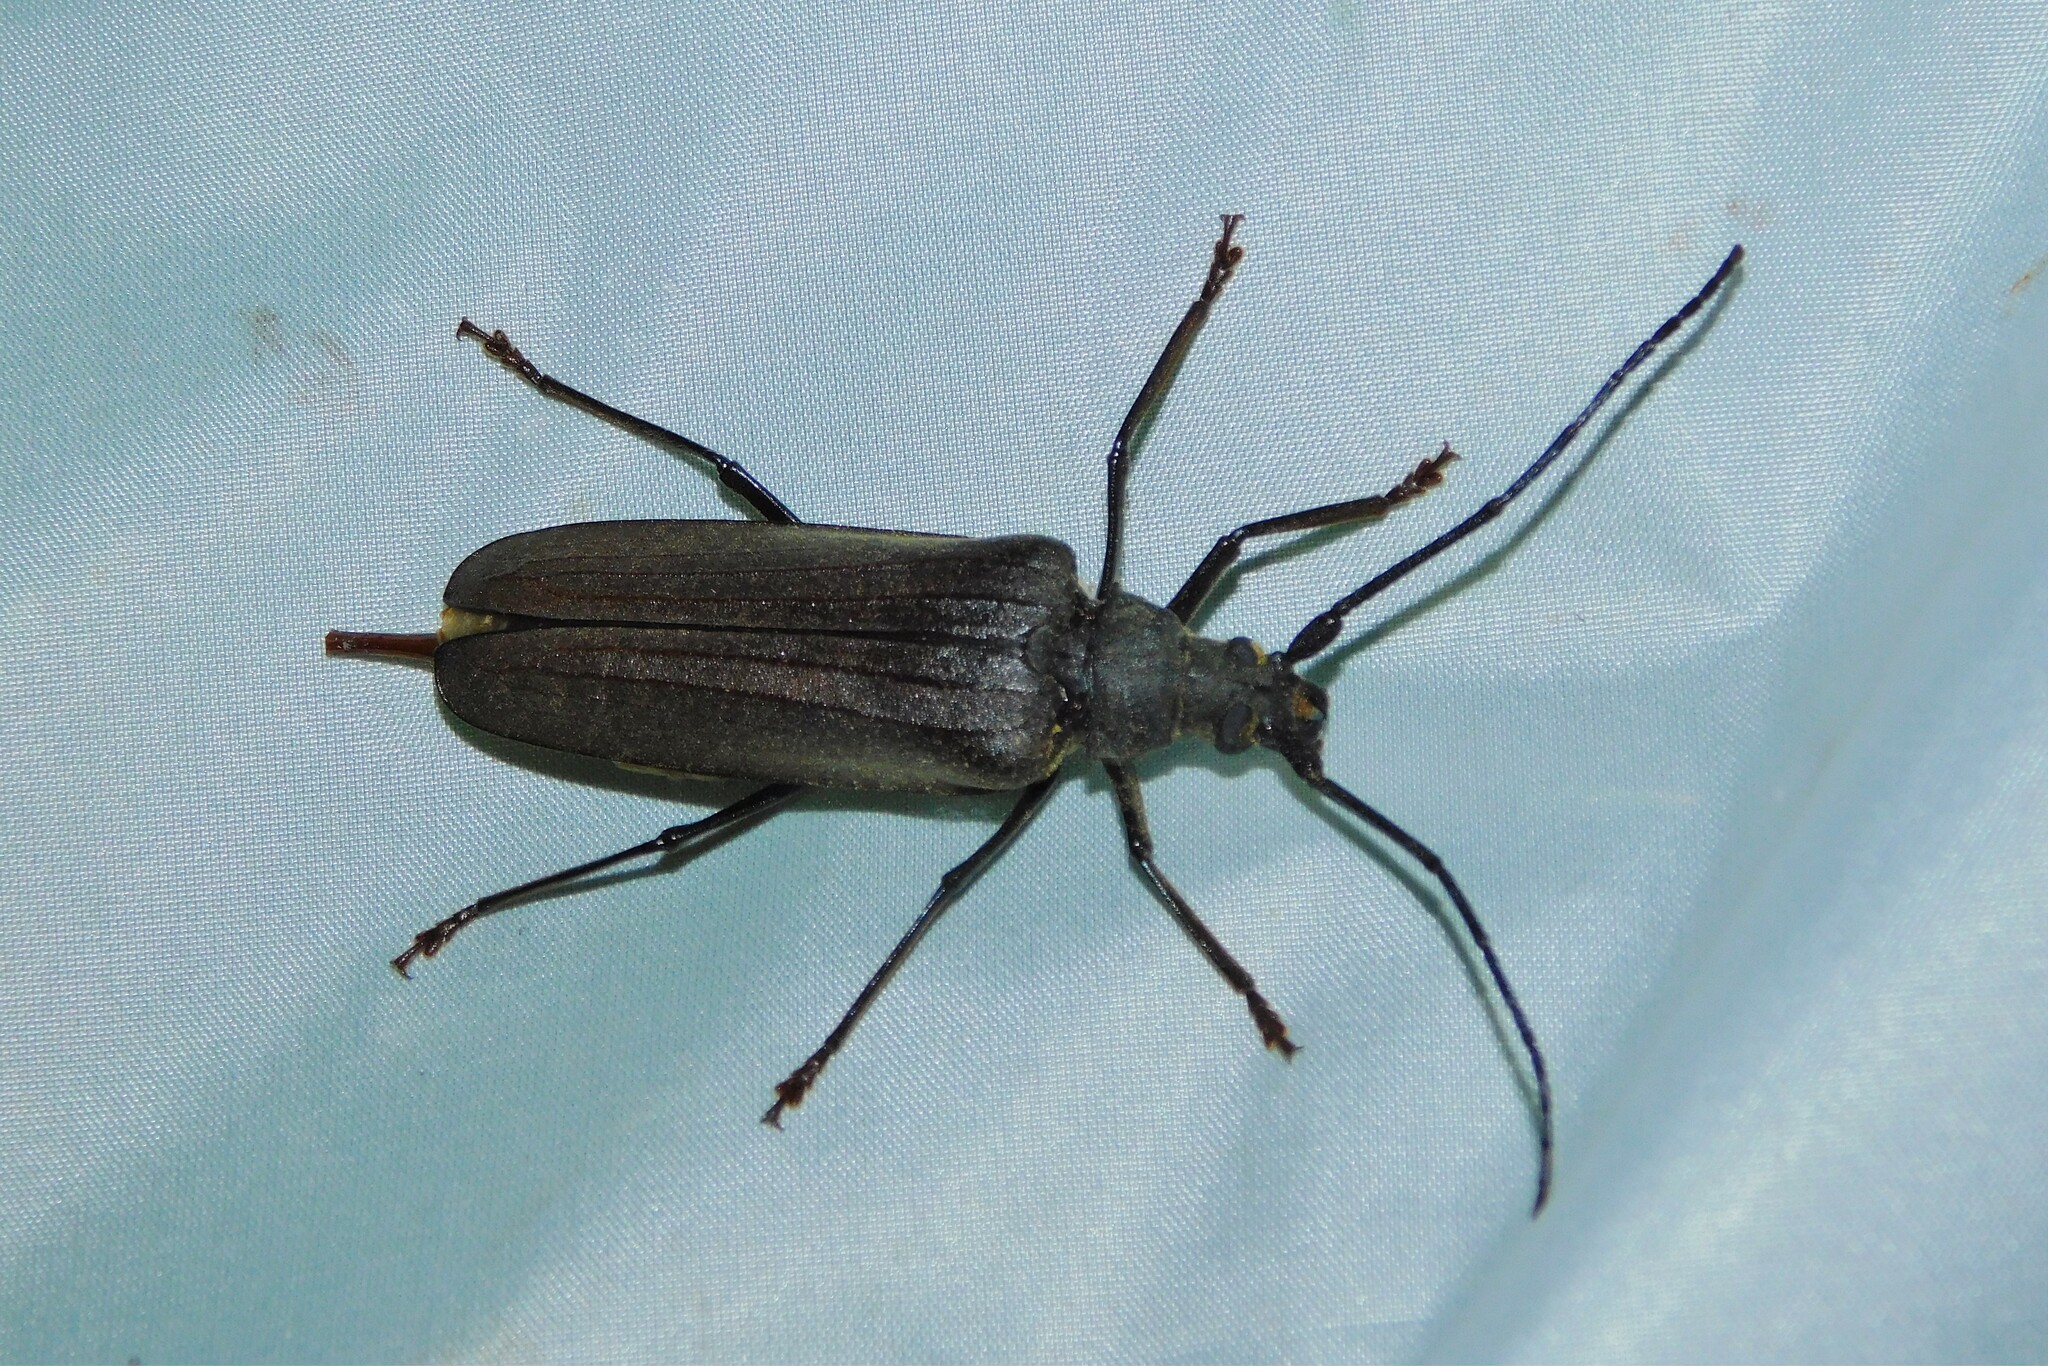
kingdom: Animalia
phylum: Arthropoda
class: Insecta
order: Coleoptera
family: Cerambycidae
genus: Aegosoma
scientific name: Aegosoma scabricorne
